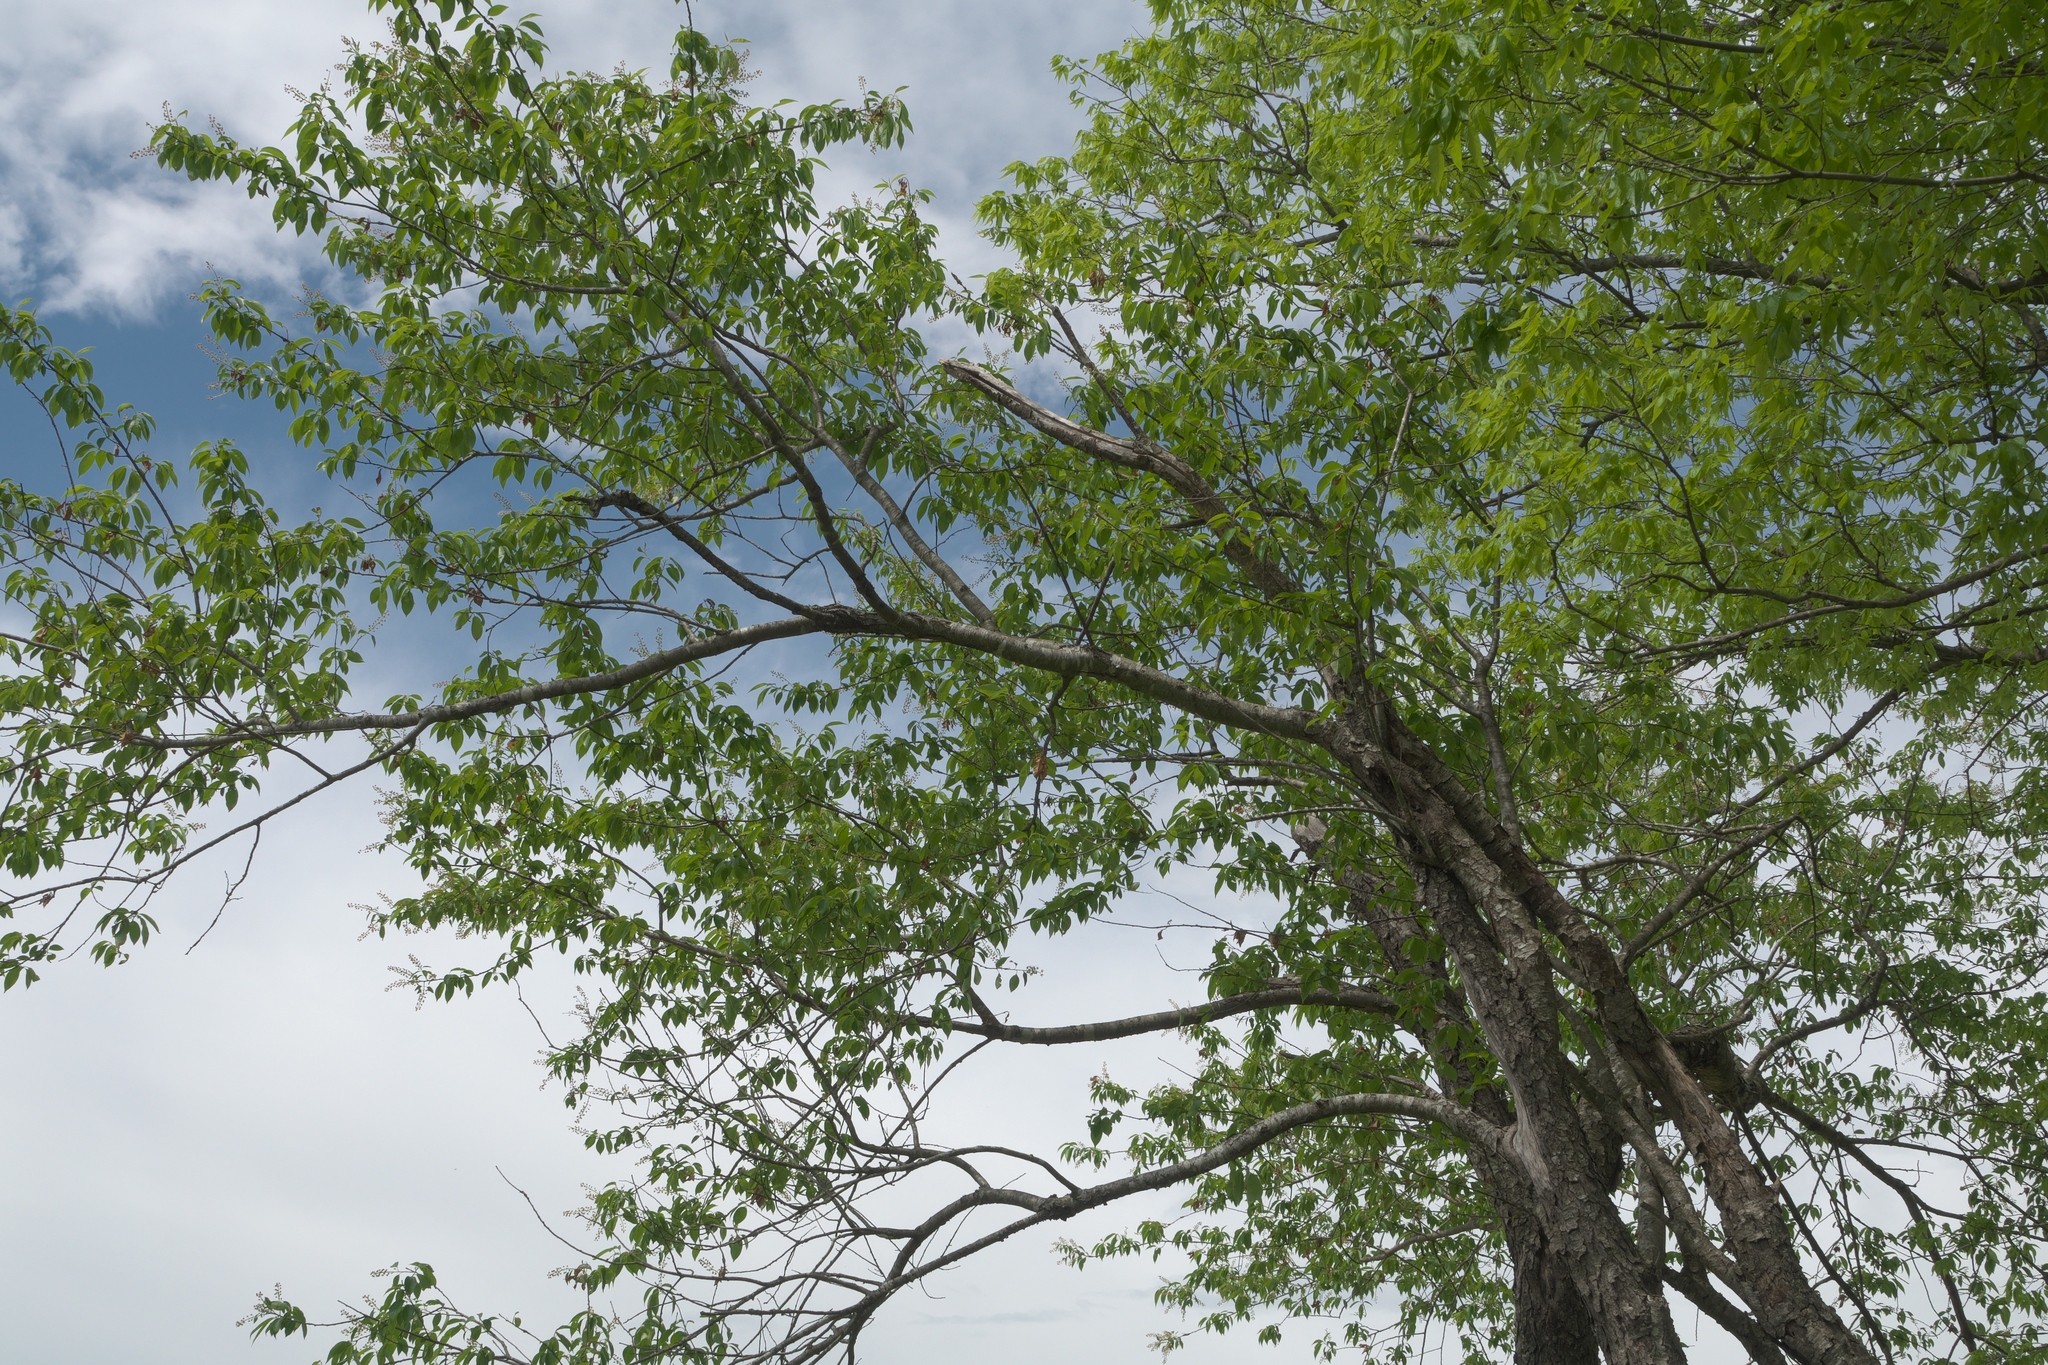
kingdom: Plantae
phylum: Tracheophyta
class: Magnoliopsida
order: Rosales
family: Rosaceae
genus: Prunus
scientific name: Prunus serotina
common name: Black cherry
